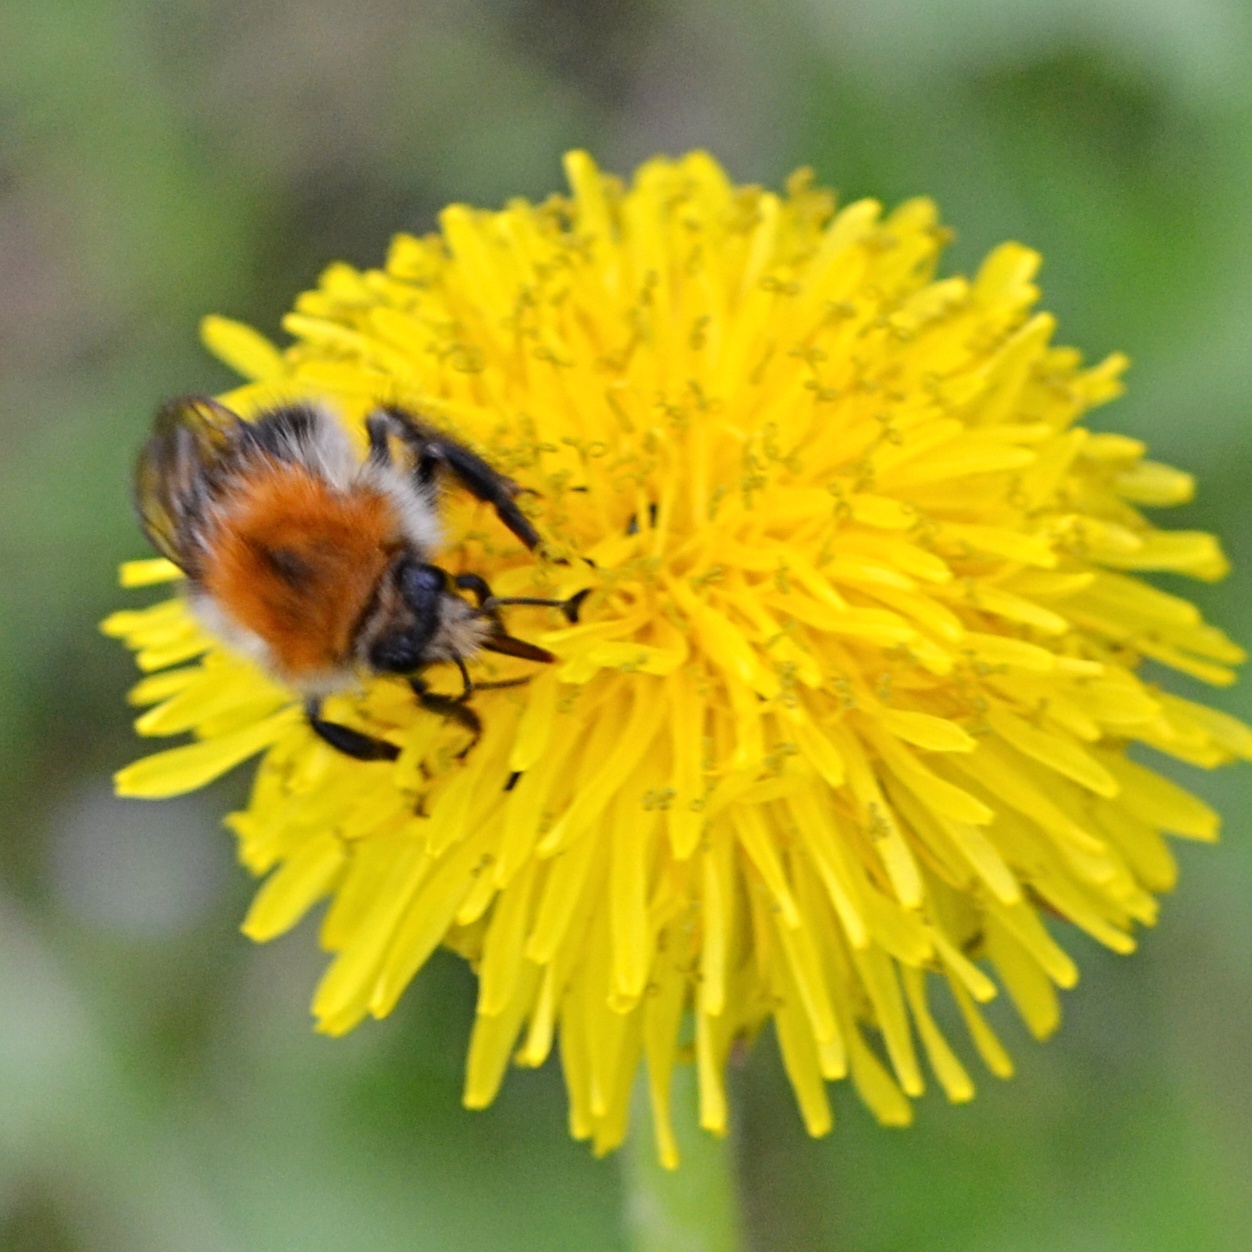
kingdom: Animalia
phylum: Arthropoda
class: Insecta
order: Hymenoptera
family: Apidae
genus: Bombus
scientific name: Bombus pascuorum
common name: Common carder bee
